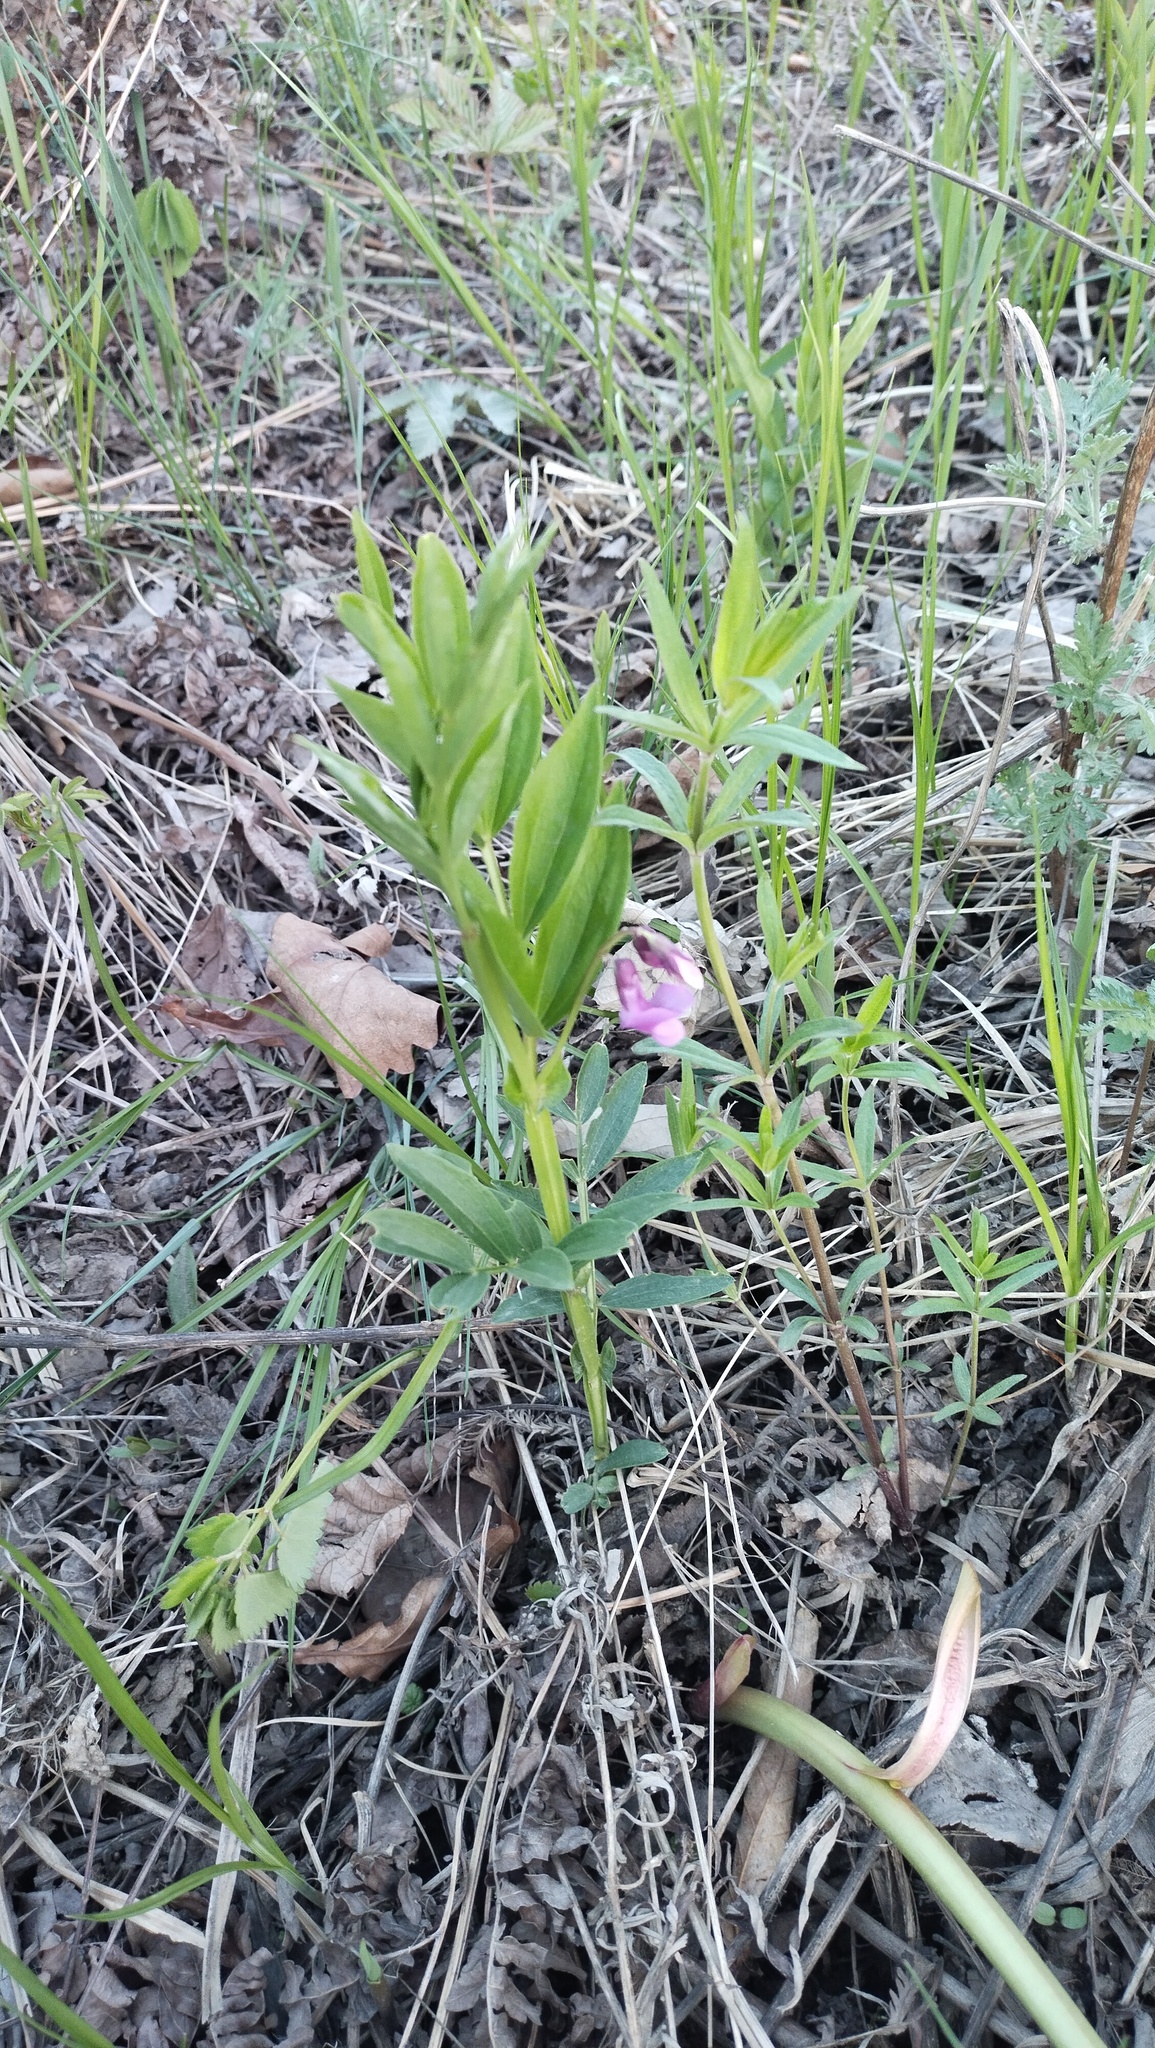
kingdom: Plantae
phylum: Tracheophyta
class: Magnoliopsida
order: Fabales
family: Fabaceae
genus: Lathyrus
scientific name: Lathyrus komarovii
